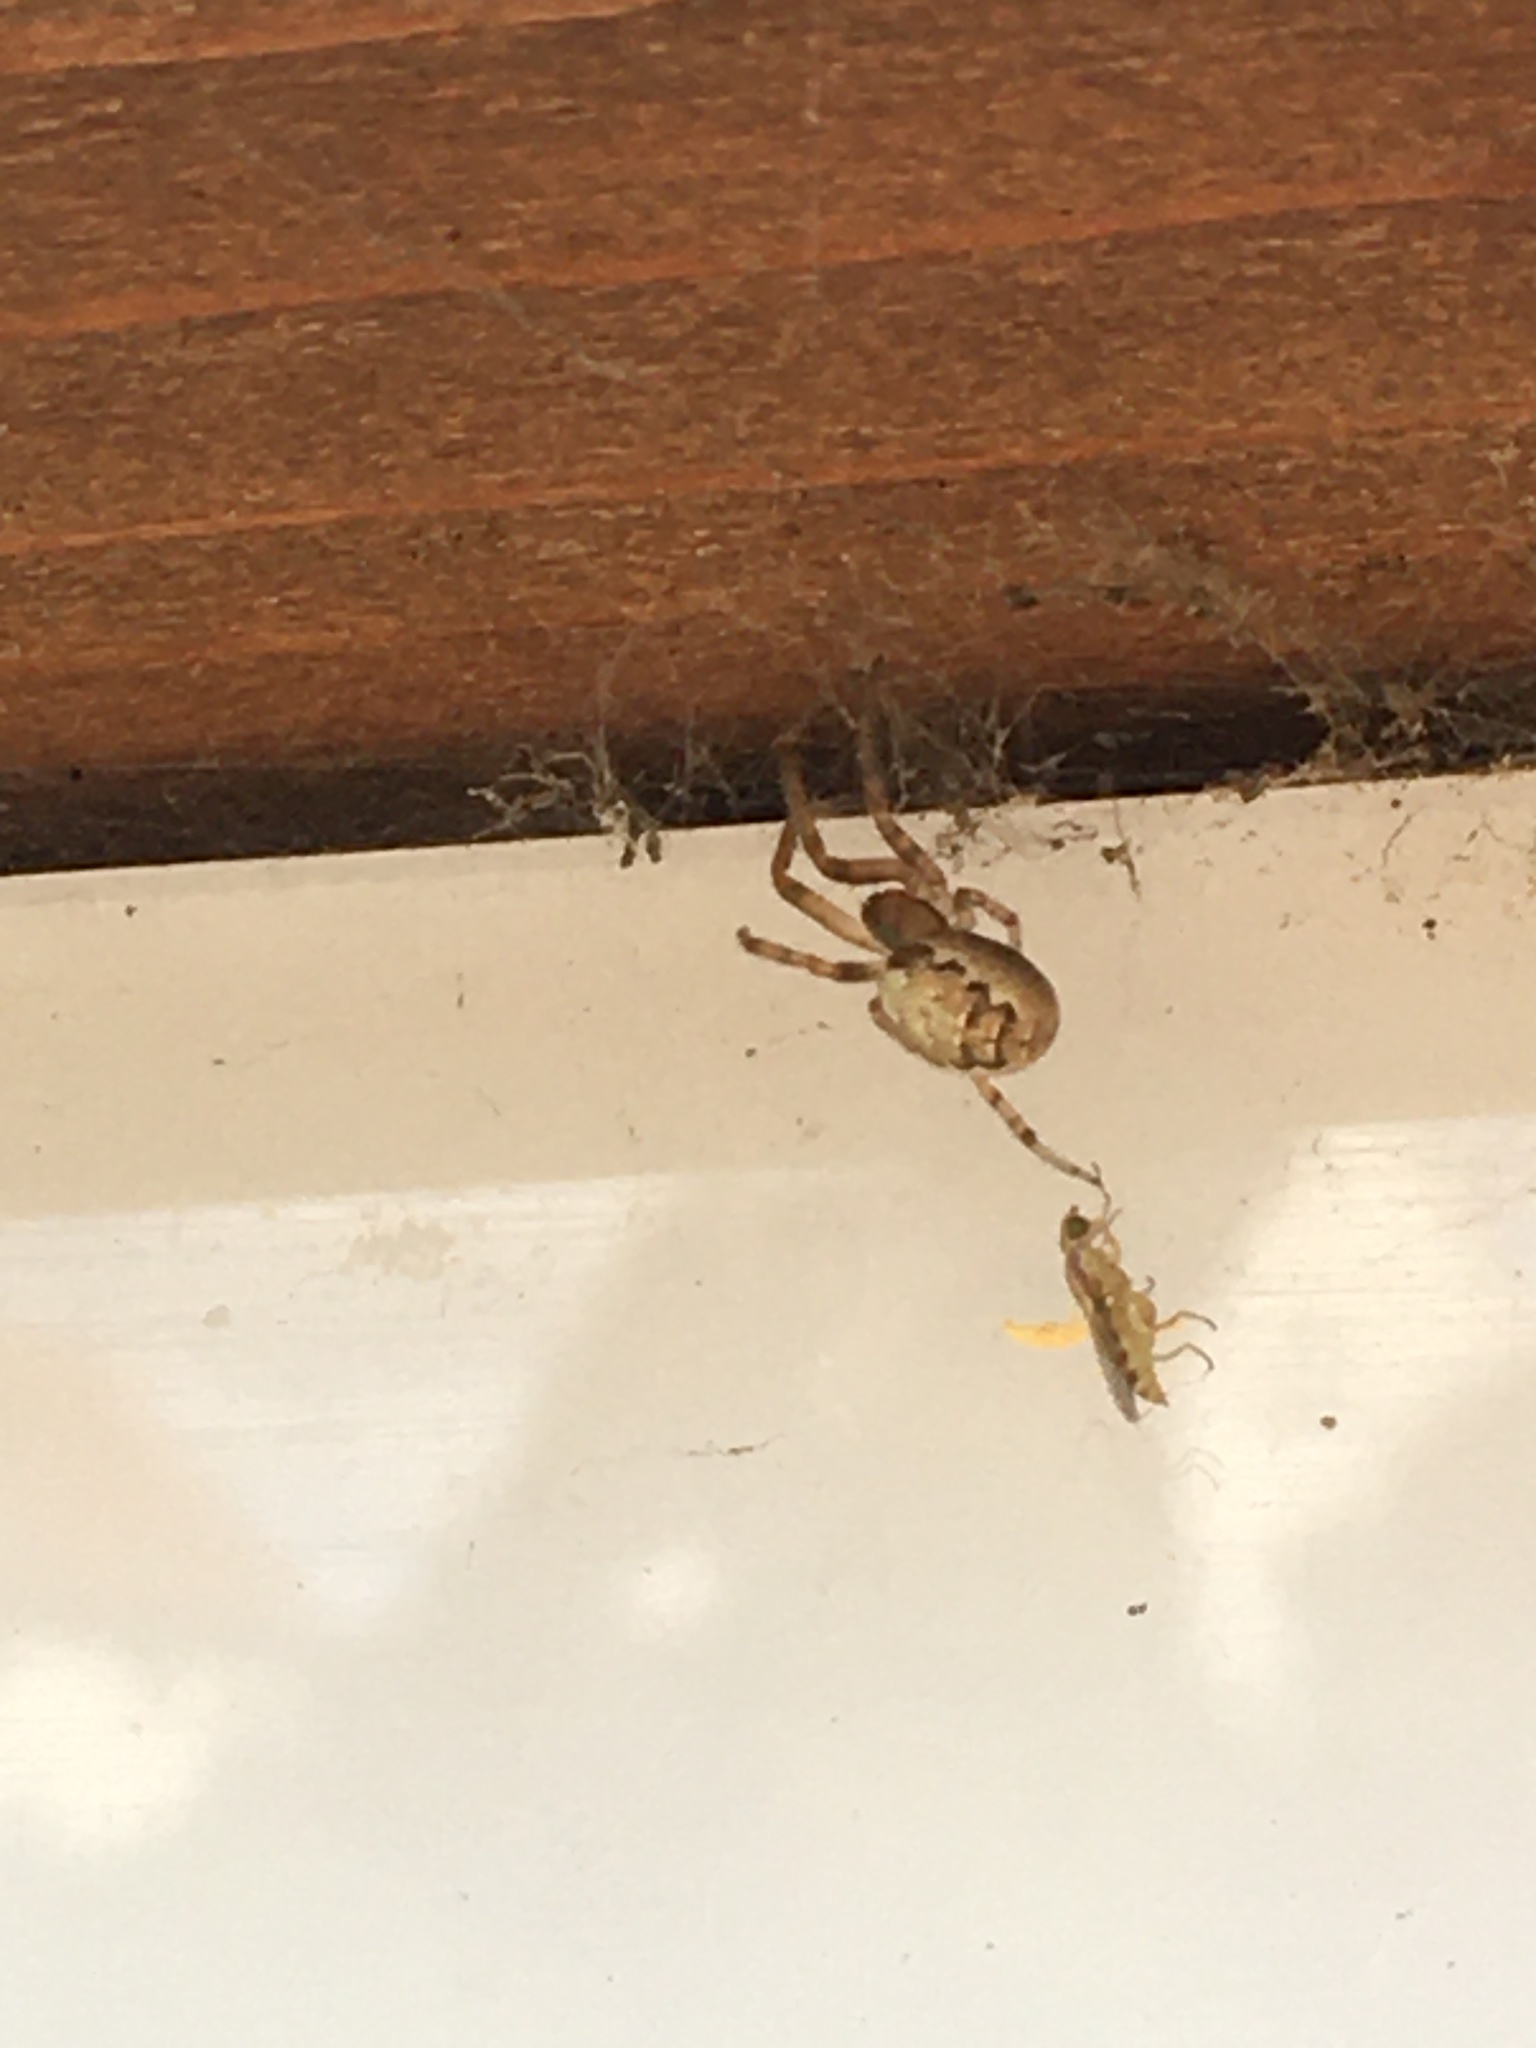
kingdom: Animalia
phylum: Arthropoda
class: Arachnida
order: Araneae
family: Araneidae
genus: Zygiella
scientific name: Zygiella x-notata
